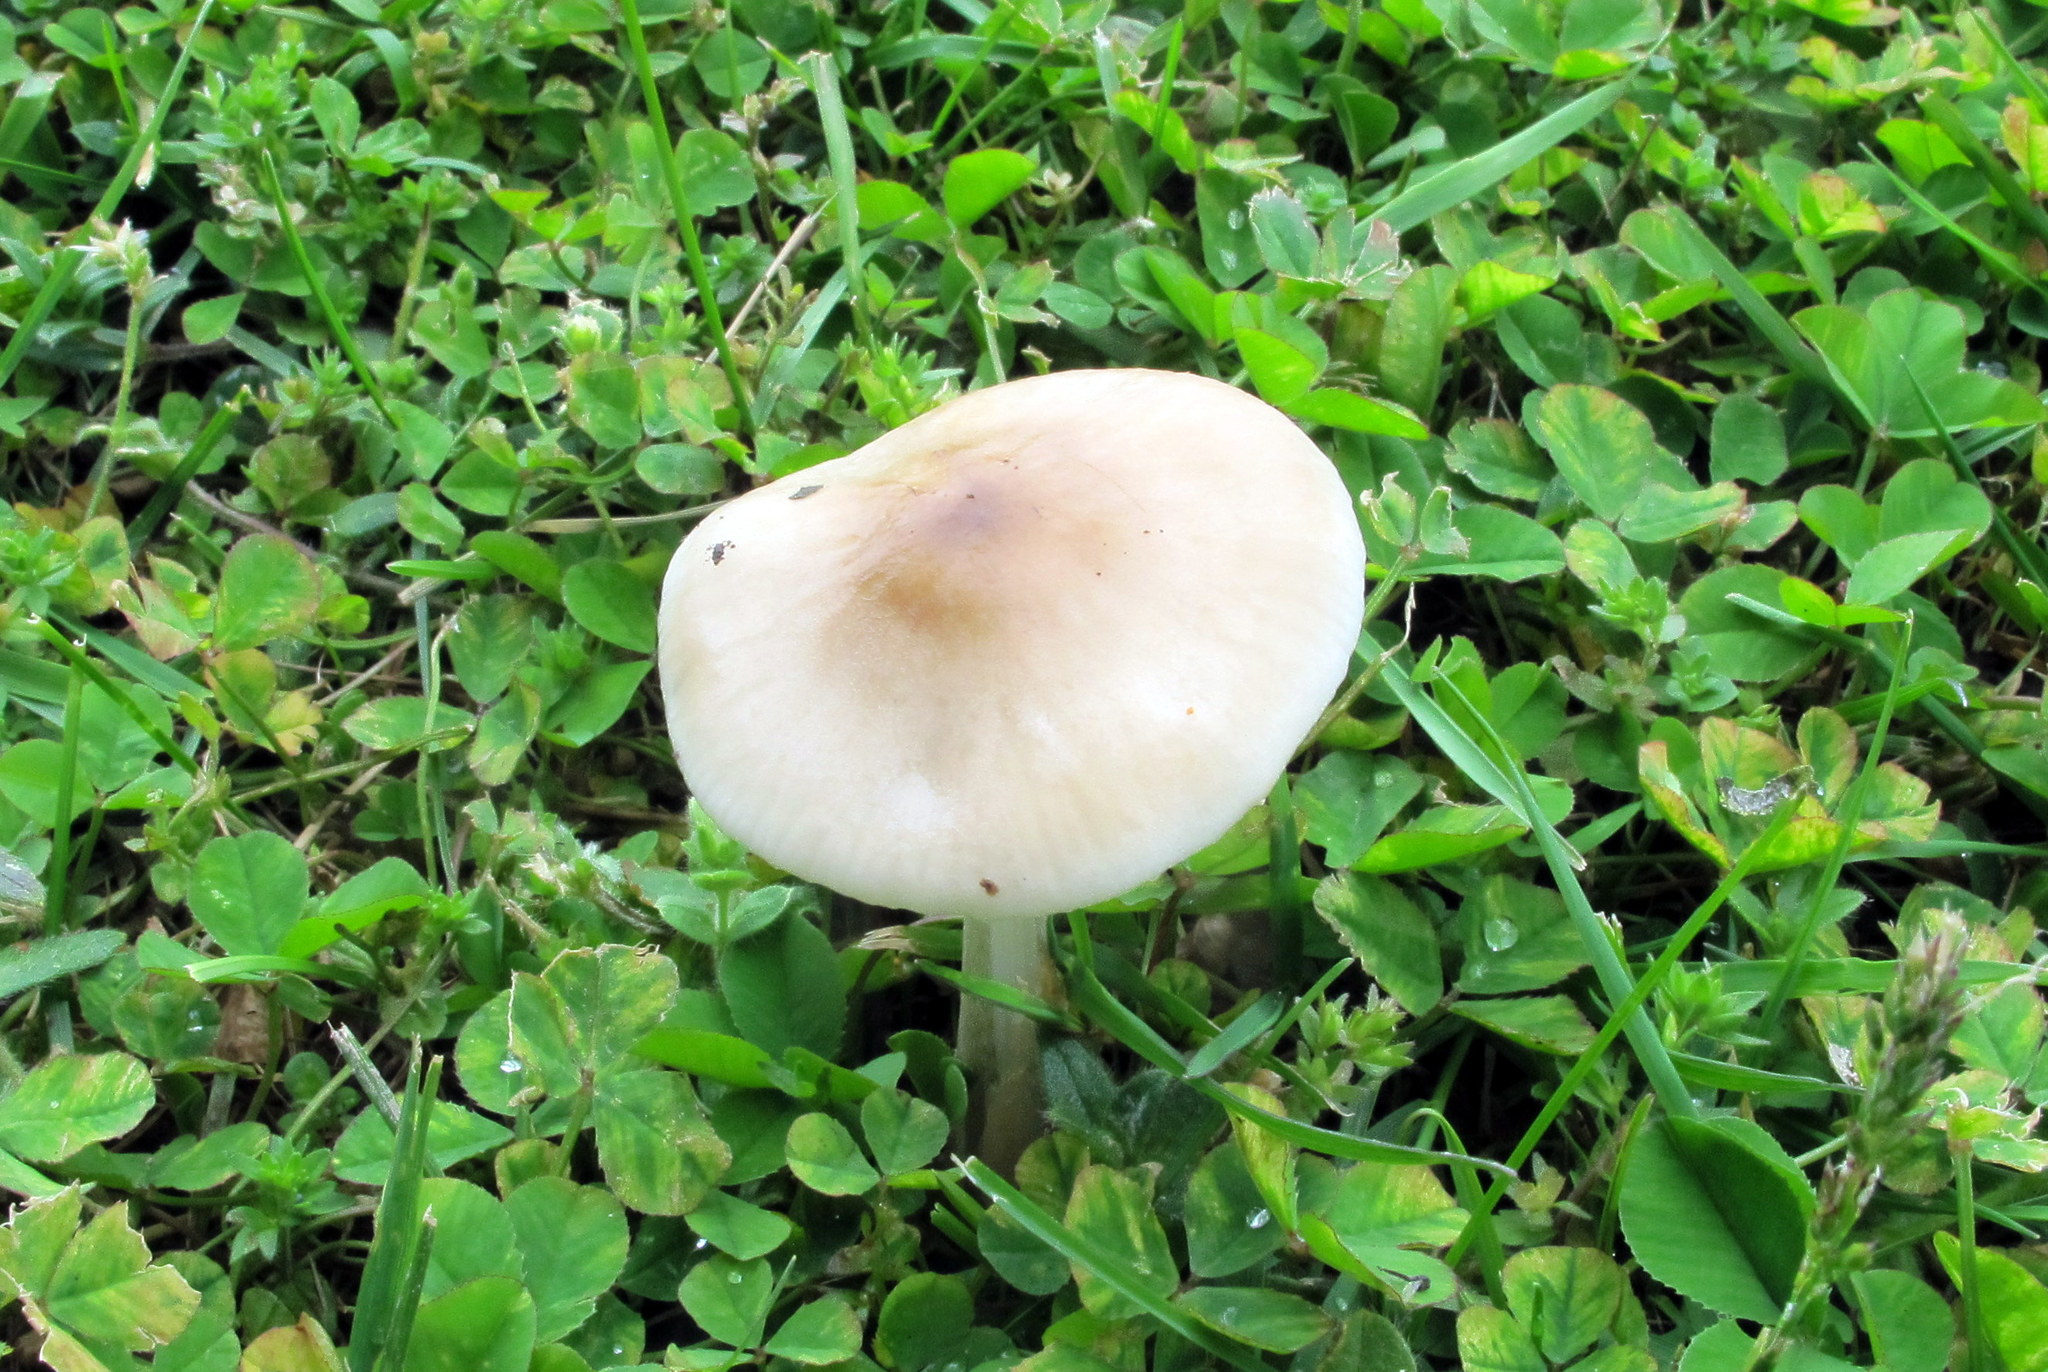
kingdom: Fungi
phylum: Basidiomycota
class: Agaricomycetes
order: Agaricales
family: Physalacriaceae
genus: Hymenopellis
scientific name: Hymenopellis megalospora
